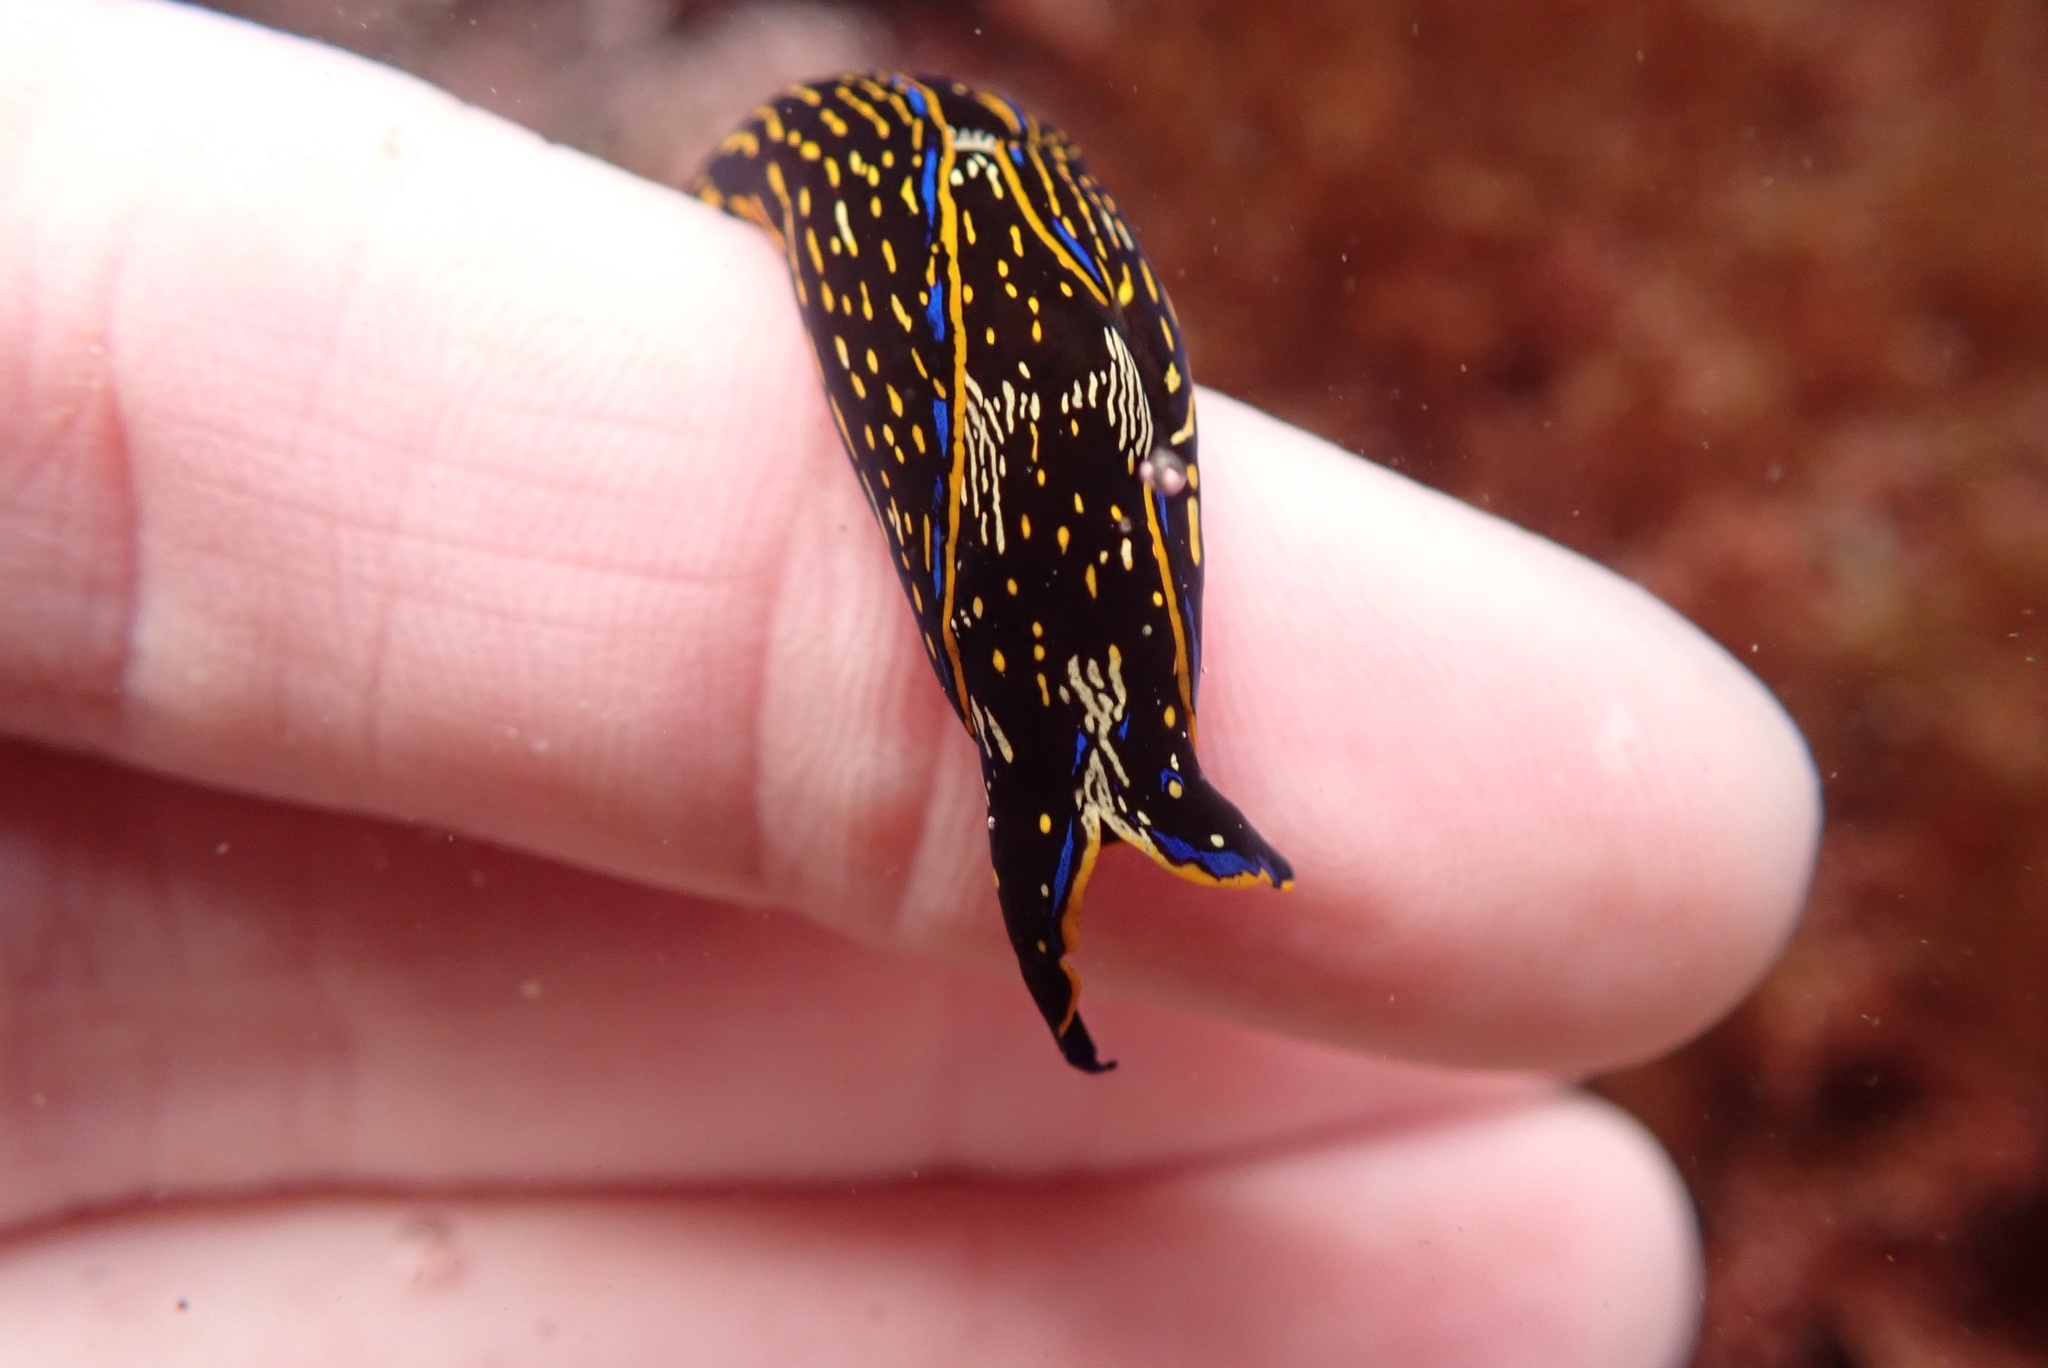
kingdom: Animalia
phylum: Mollusca
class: Gastropoda
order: Cephalaspidea
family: Aglajidae
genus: Navanax
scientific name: Navanax inermis
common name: California aglaja
